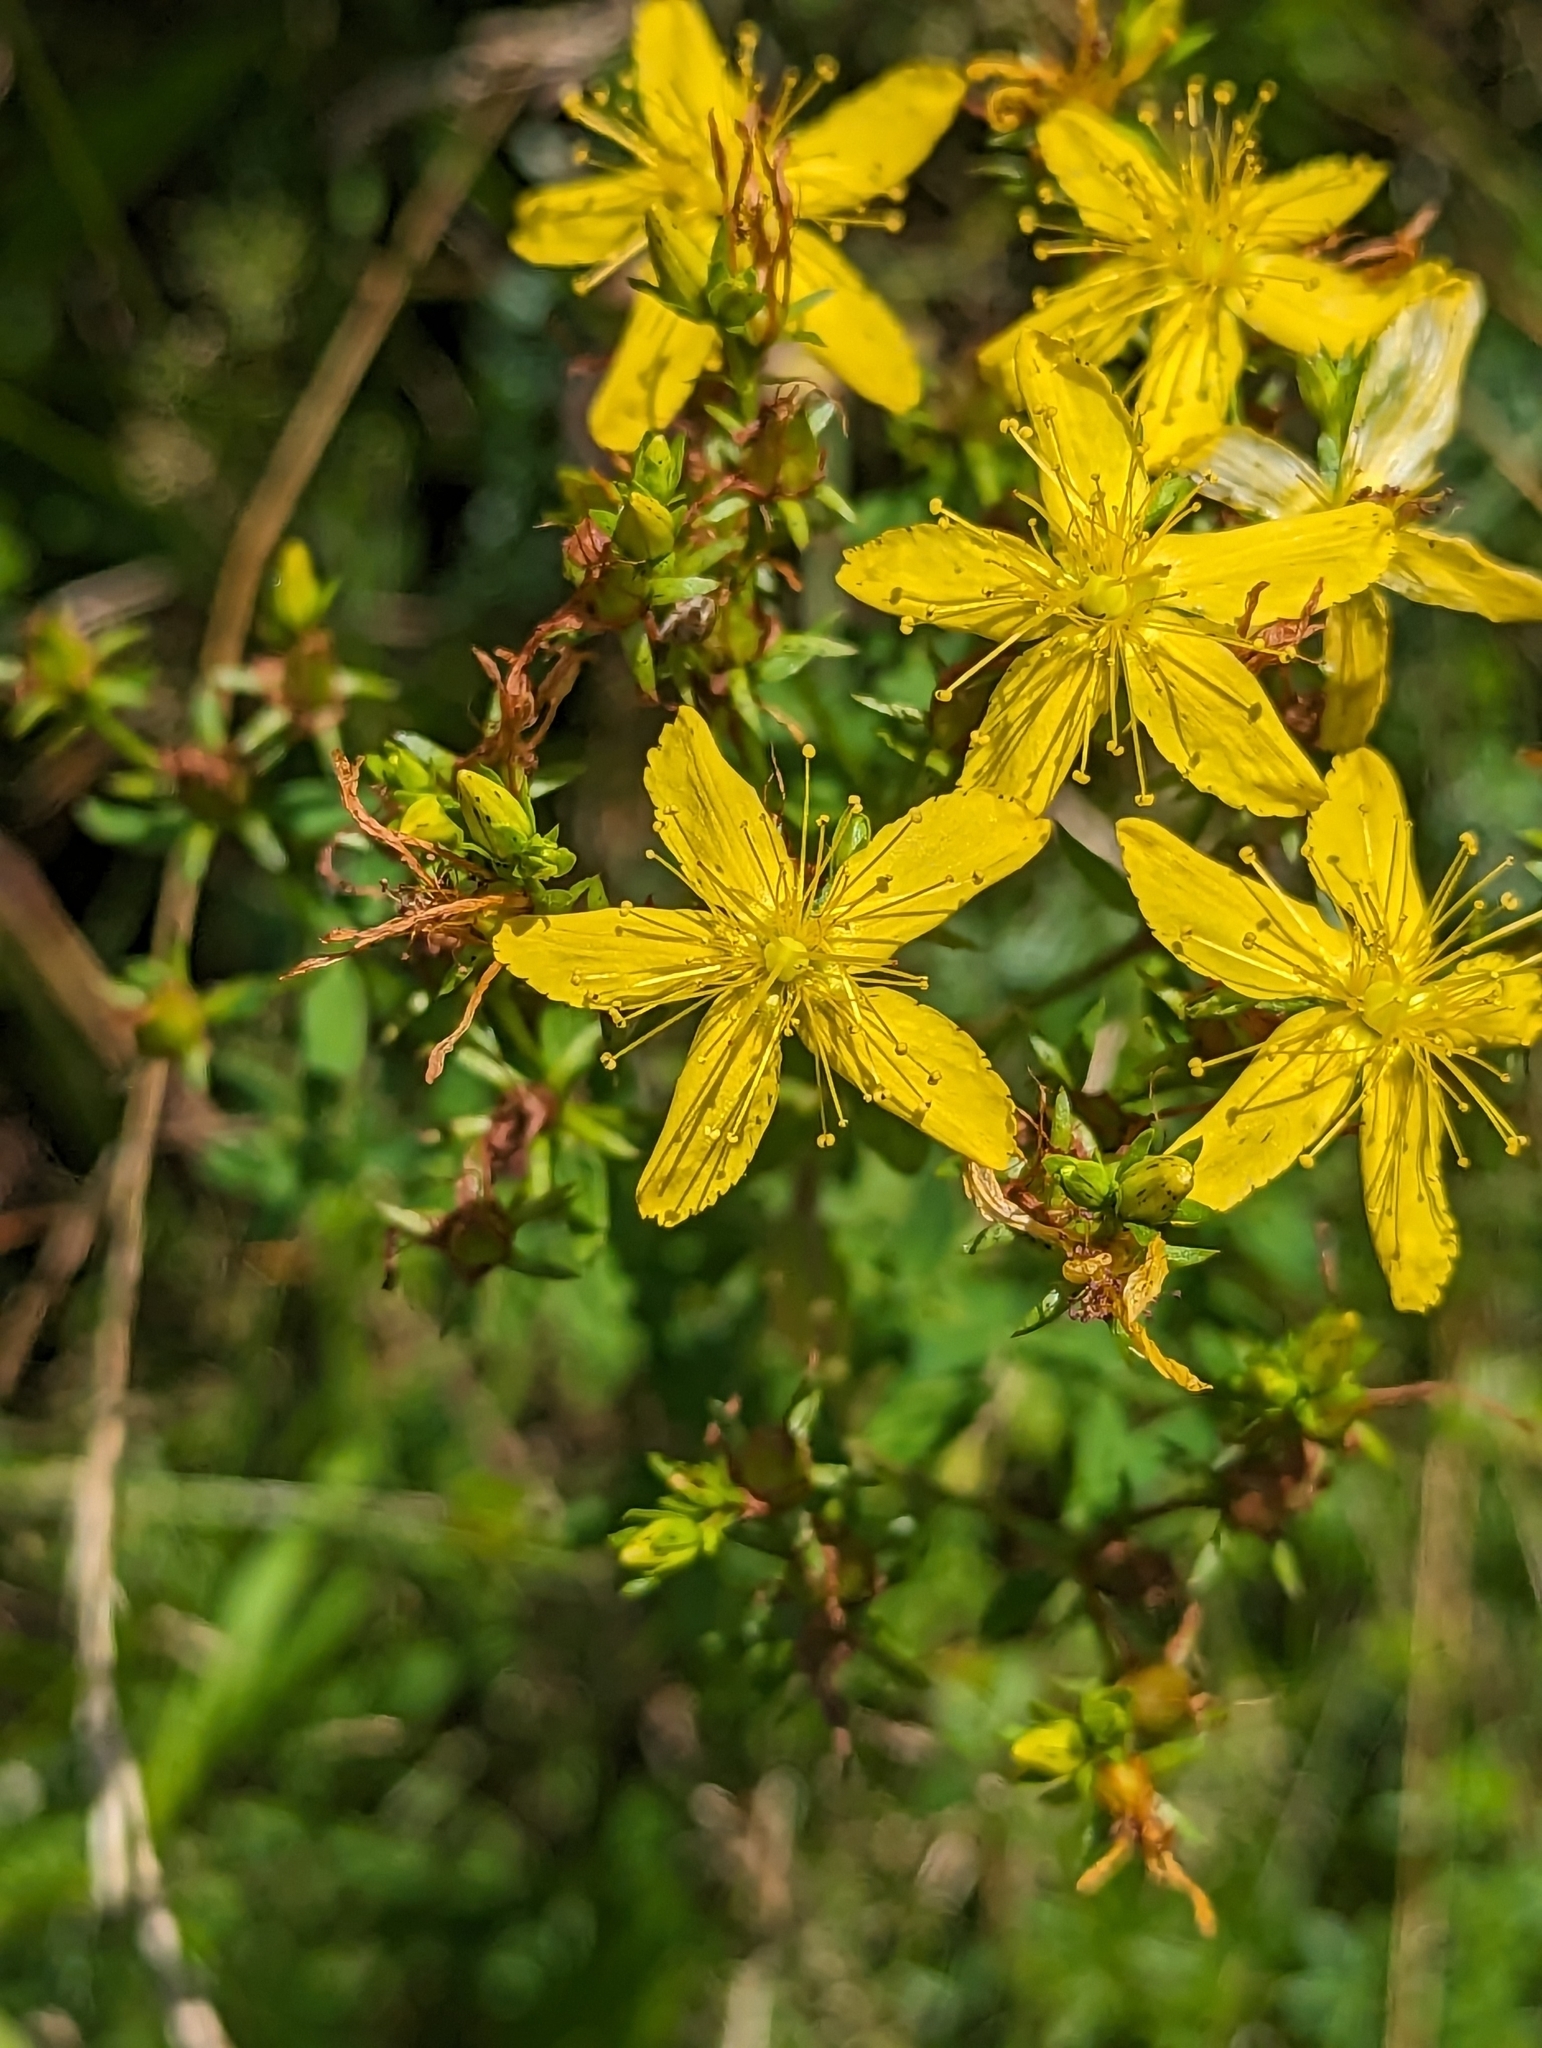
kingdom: Plantae
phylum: Tracheophyta
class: Magnoliopsida
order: Malpighiales
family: Hypericaceae
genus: Hypericum
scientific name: Hypericum perforatum
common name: Common st. johnswort
